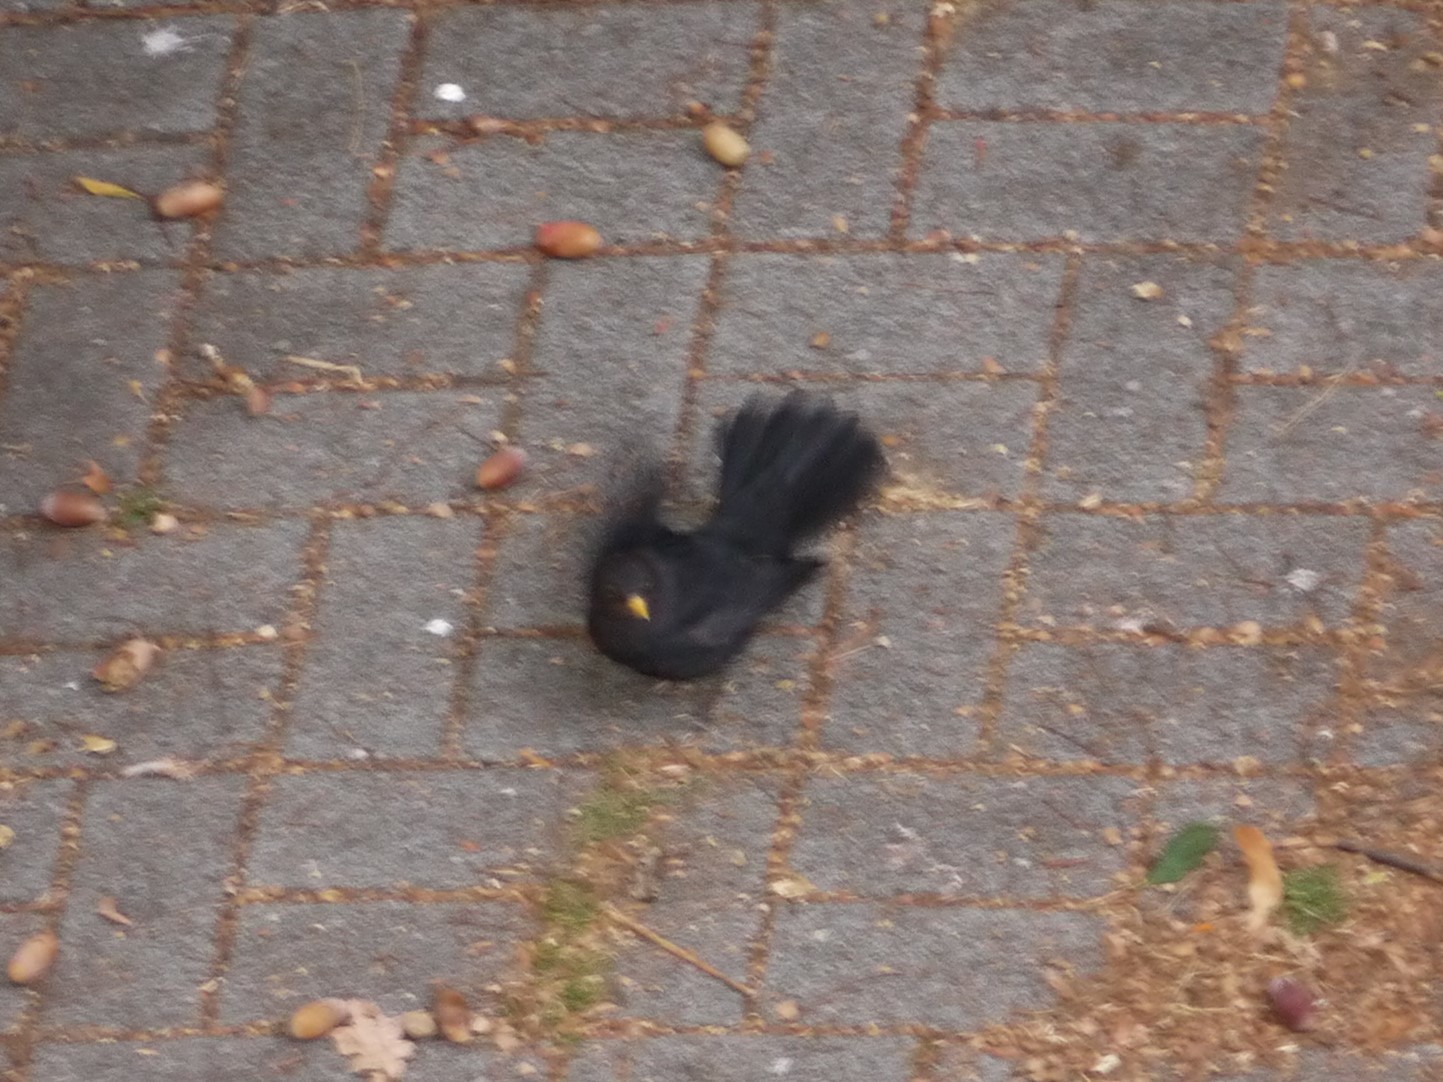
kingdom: Animalia
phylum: Chordata
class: Aves
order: Passeriformes
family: Turdidae
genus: Turdus
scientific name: Turdus merula
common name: Common blackbird
